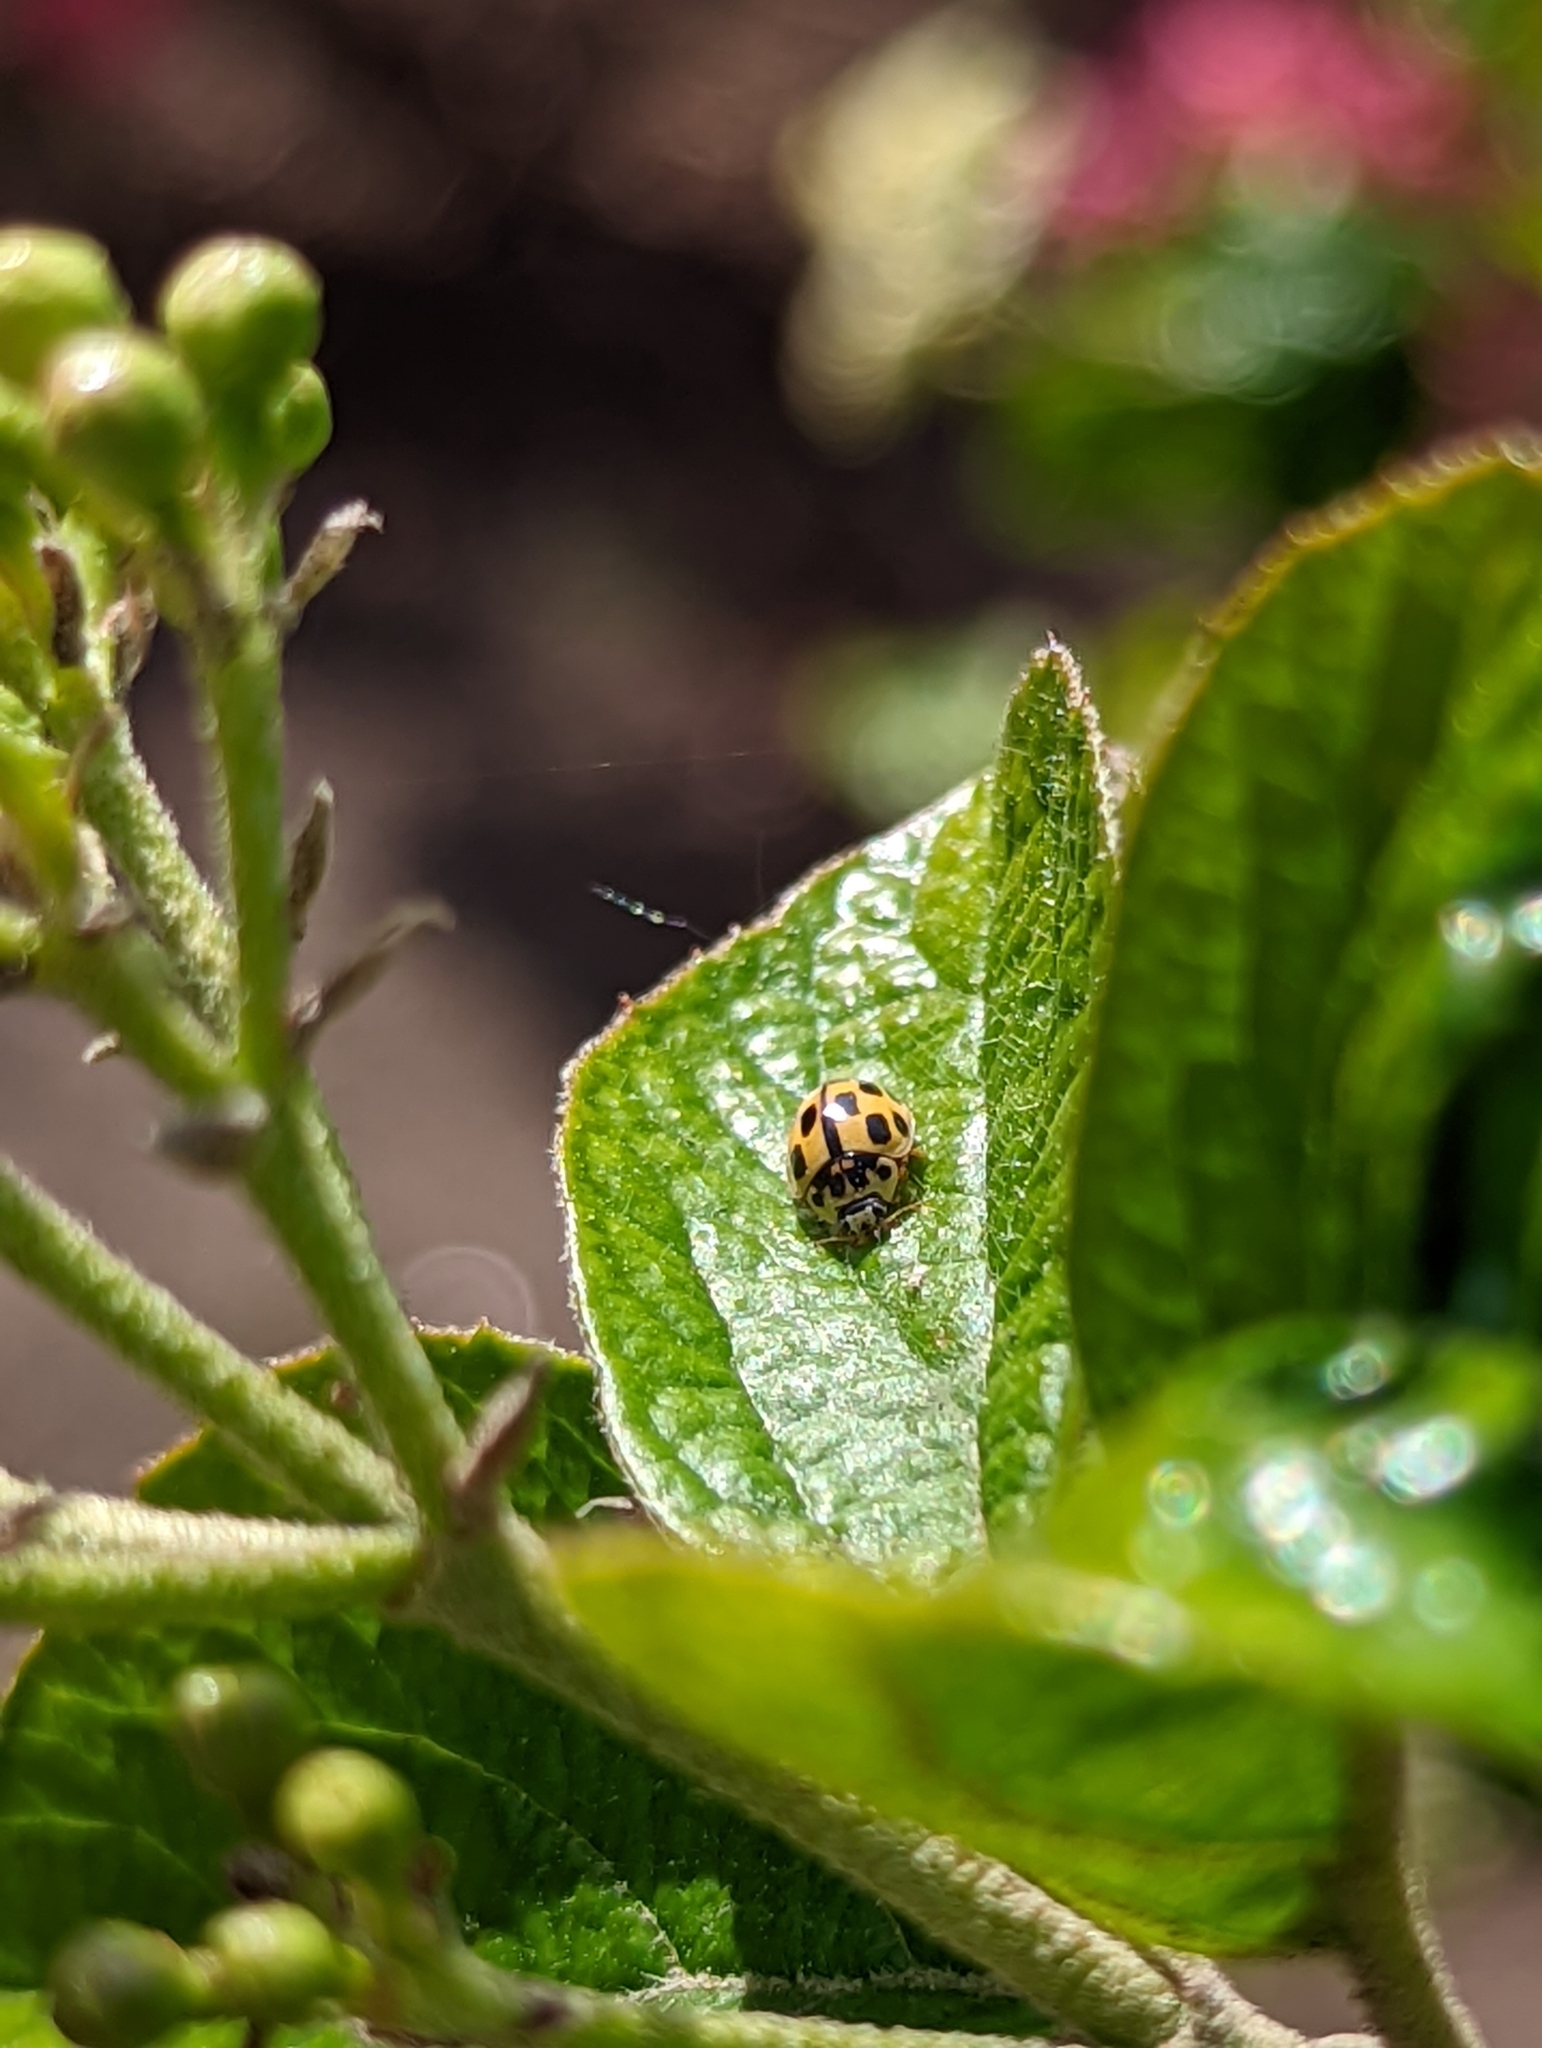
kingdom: Animalia
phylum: Arthropoda
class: Insecta
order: Coleoptera
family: Coccinellidae
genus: Propylaea
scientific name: Propylaea quatuordecimpunctata
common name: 14-spotted ladybird beetle
